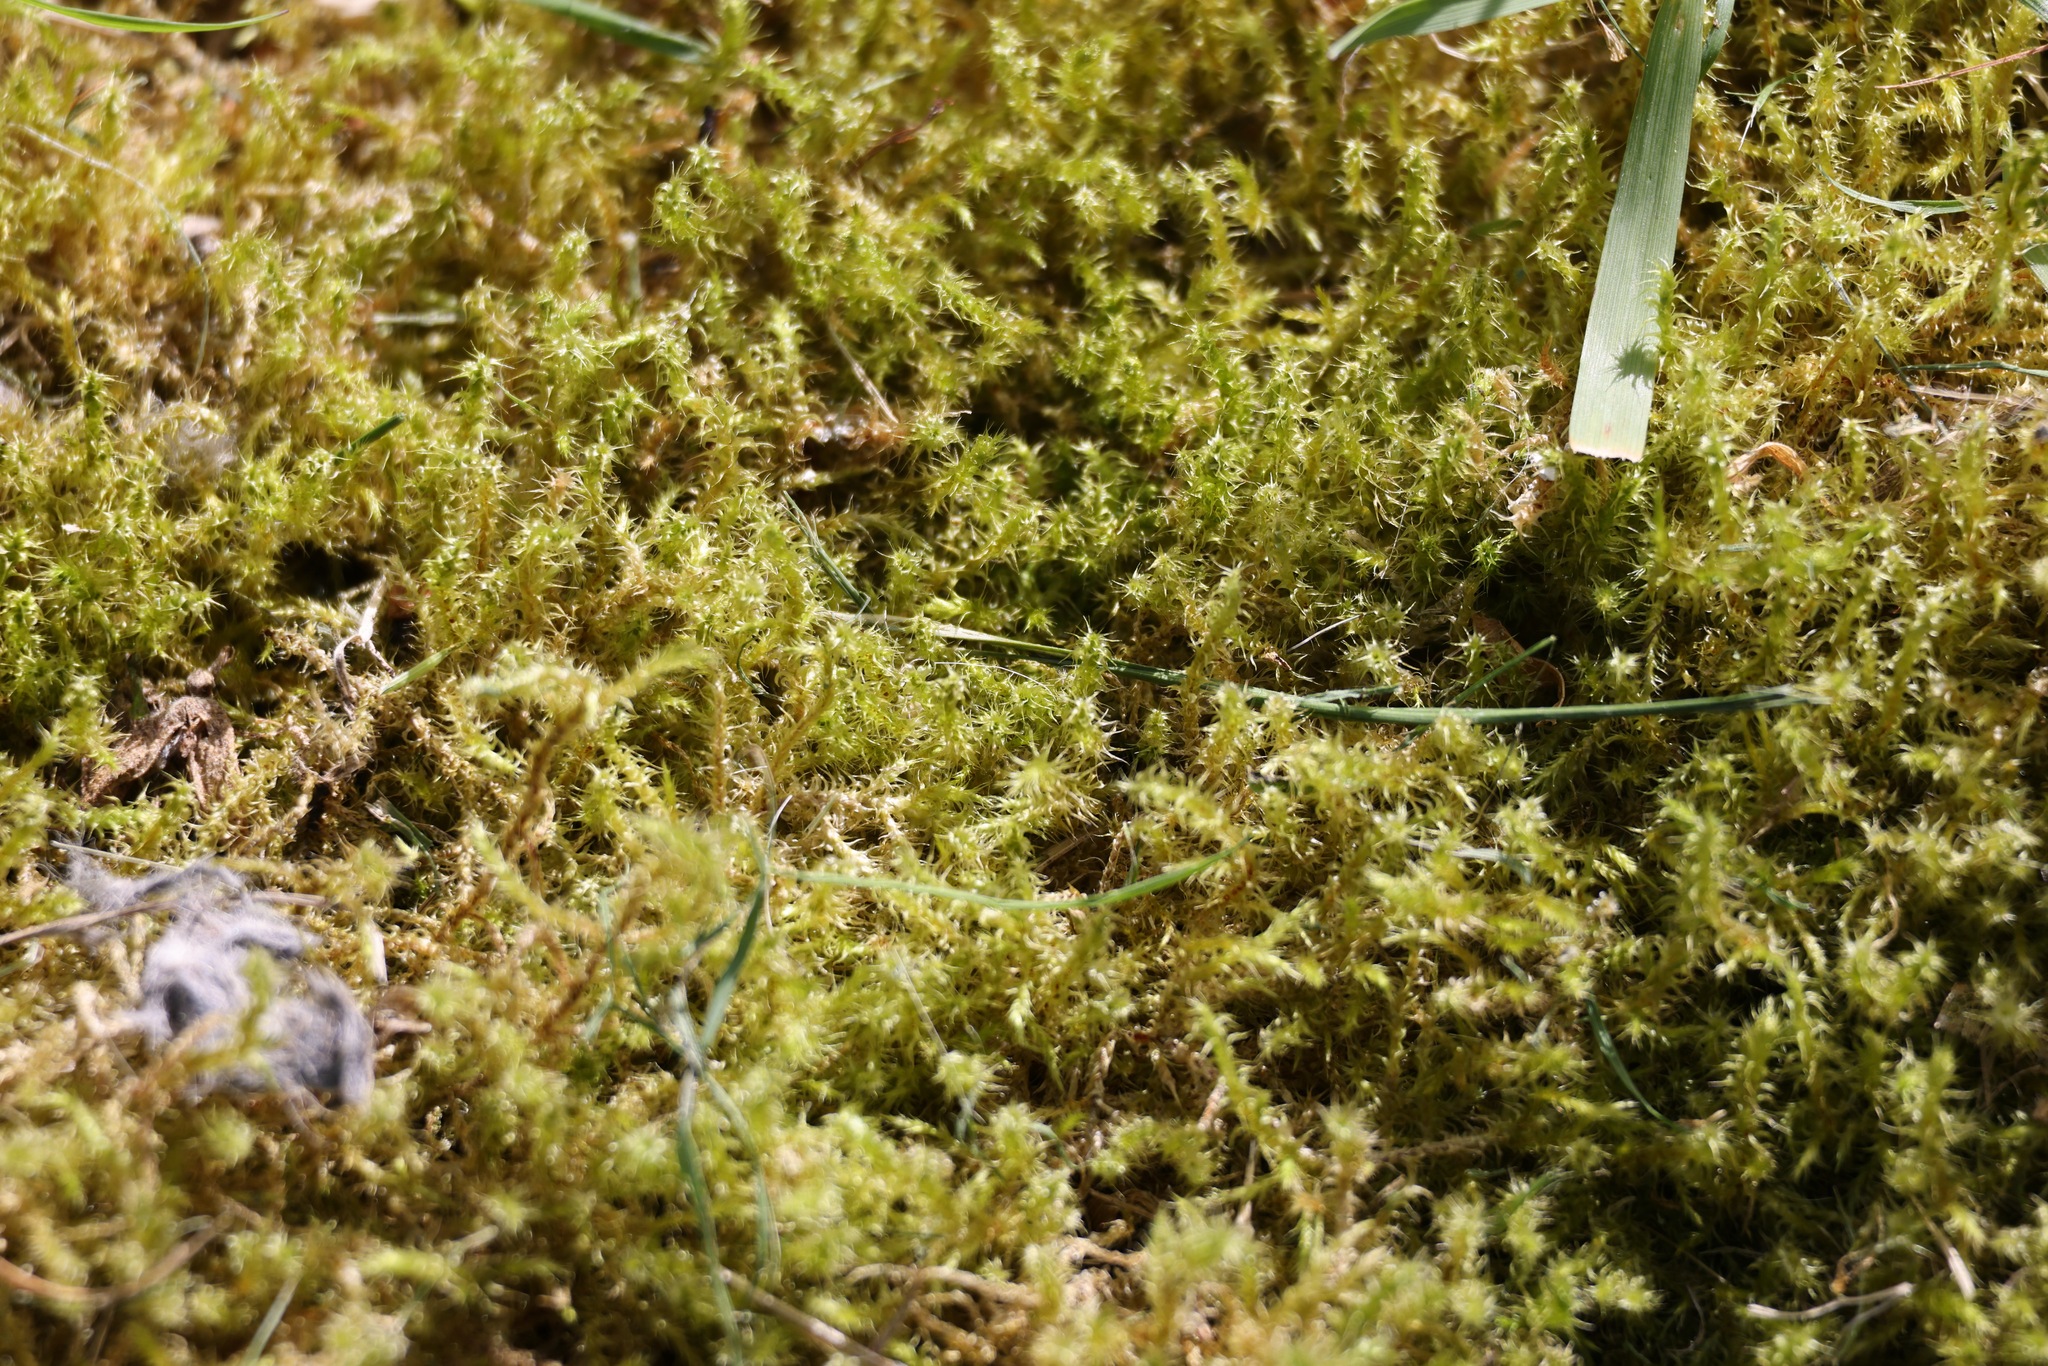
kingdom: Plantae
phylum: Bryophyta
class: Bryopsida
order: Hypnales
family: Hylocomiaceae
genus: Rhytidiadelphus
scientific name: Rhytidiadelphus squarrosus
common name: Springy turf-moss
